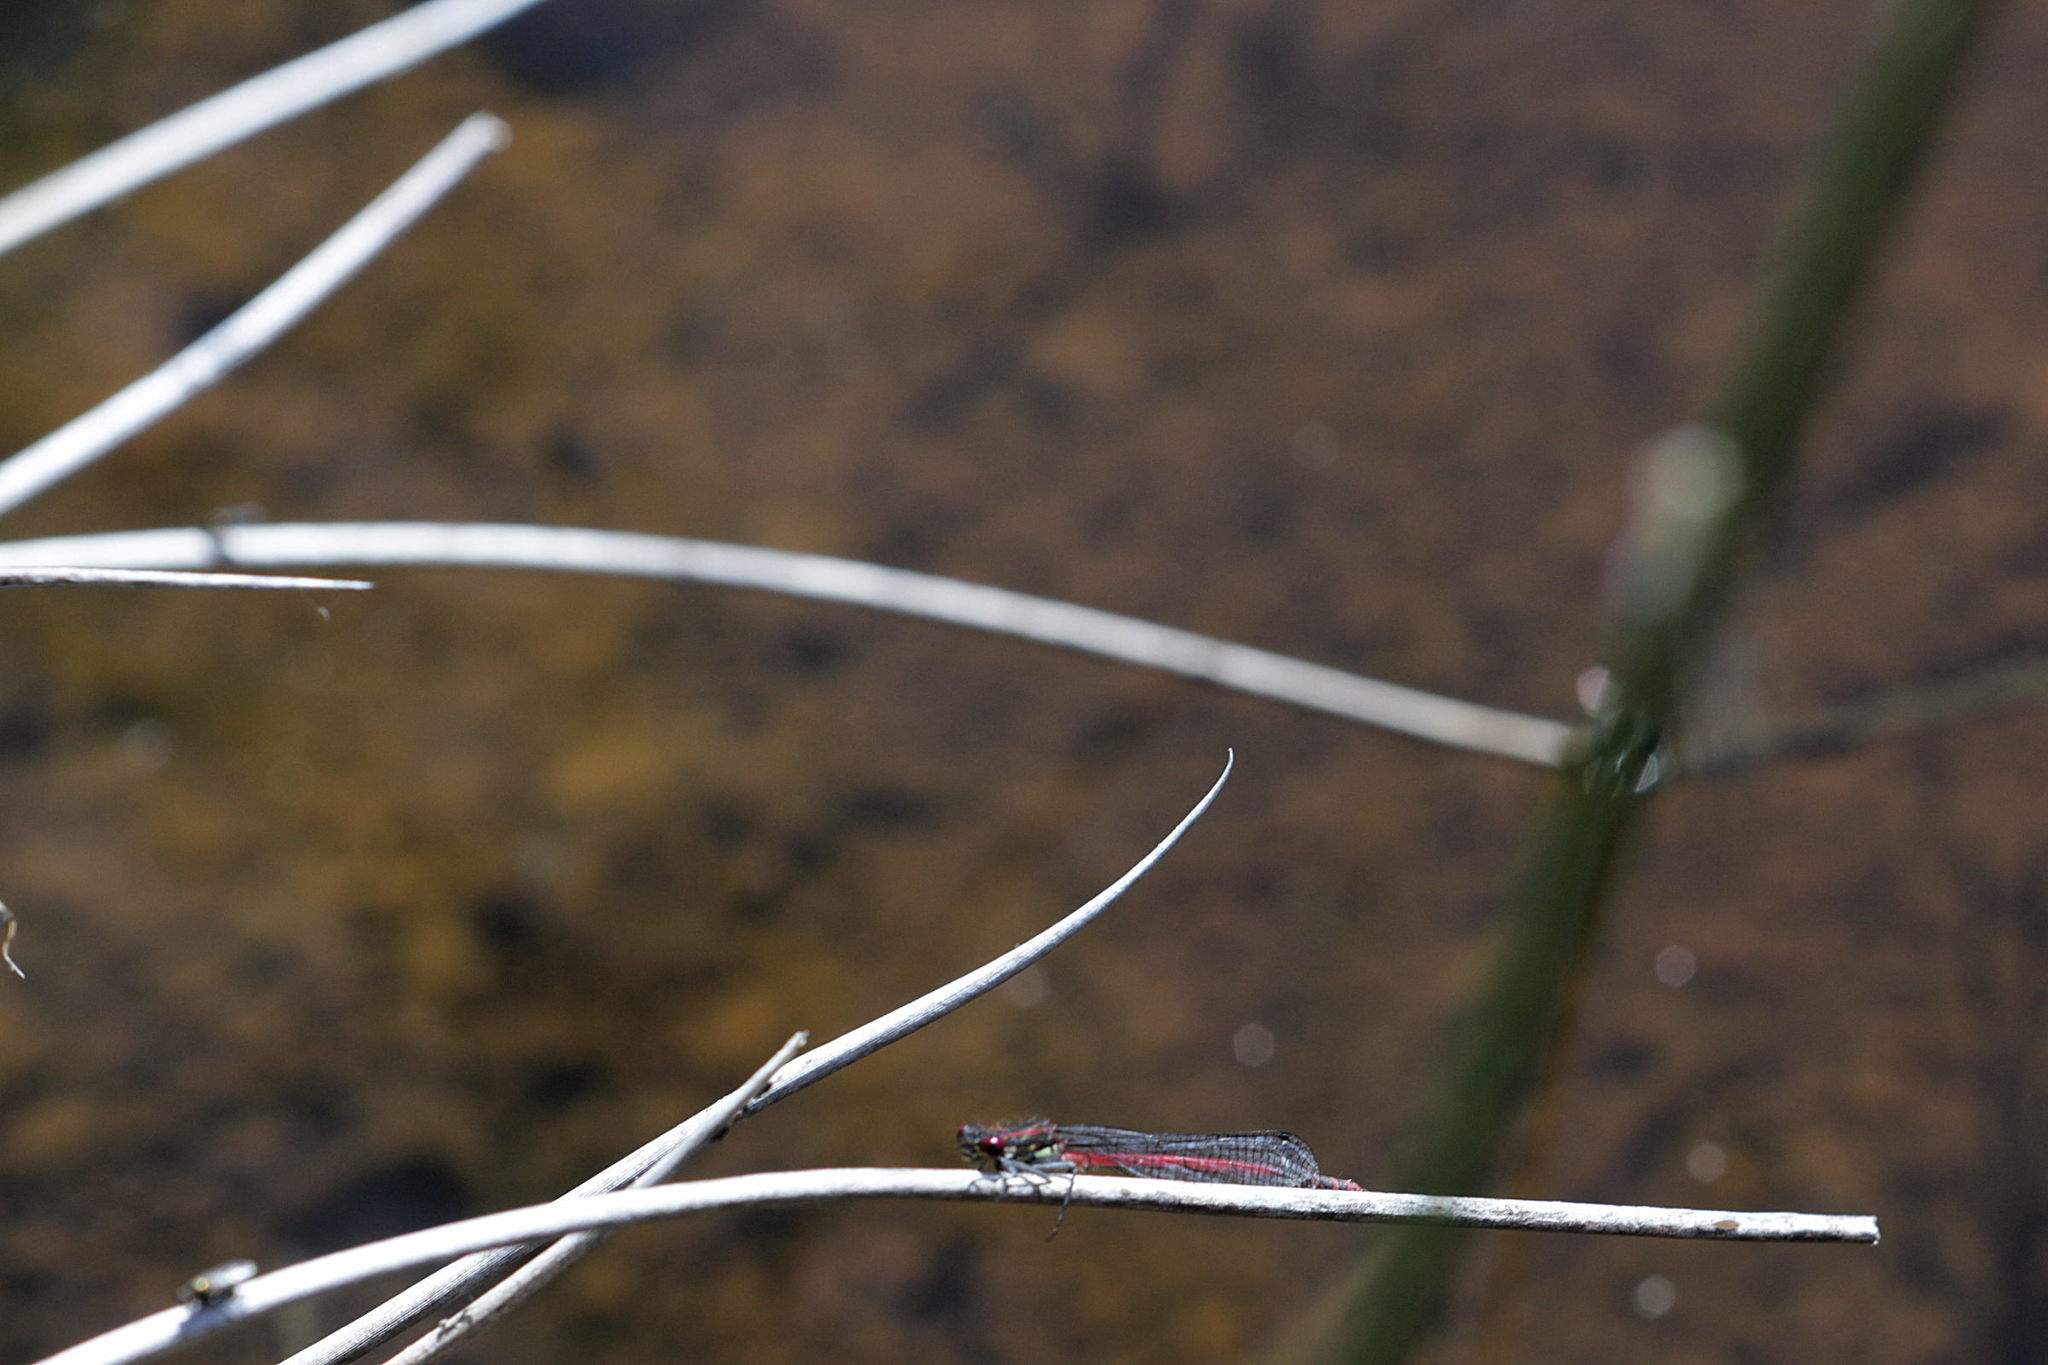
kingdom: Animalia
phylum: Arthropoda
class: Insecta
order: Odonata
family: Coenagrionidae
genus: Pyrrhosoma
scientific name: Pyrrhosoma nymphula
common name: Large red damsel
